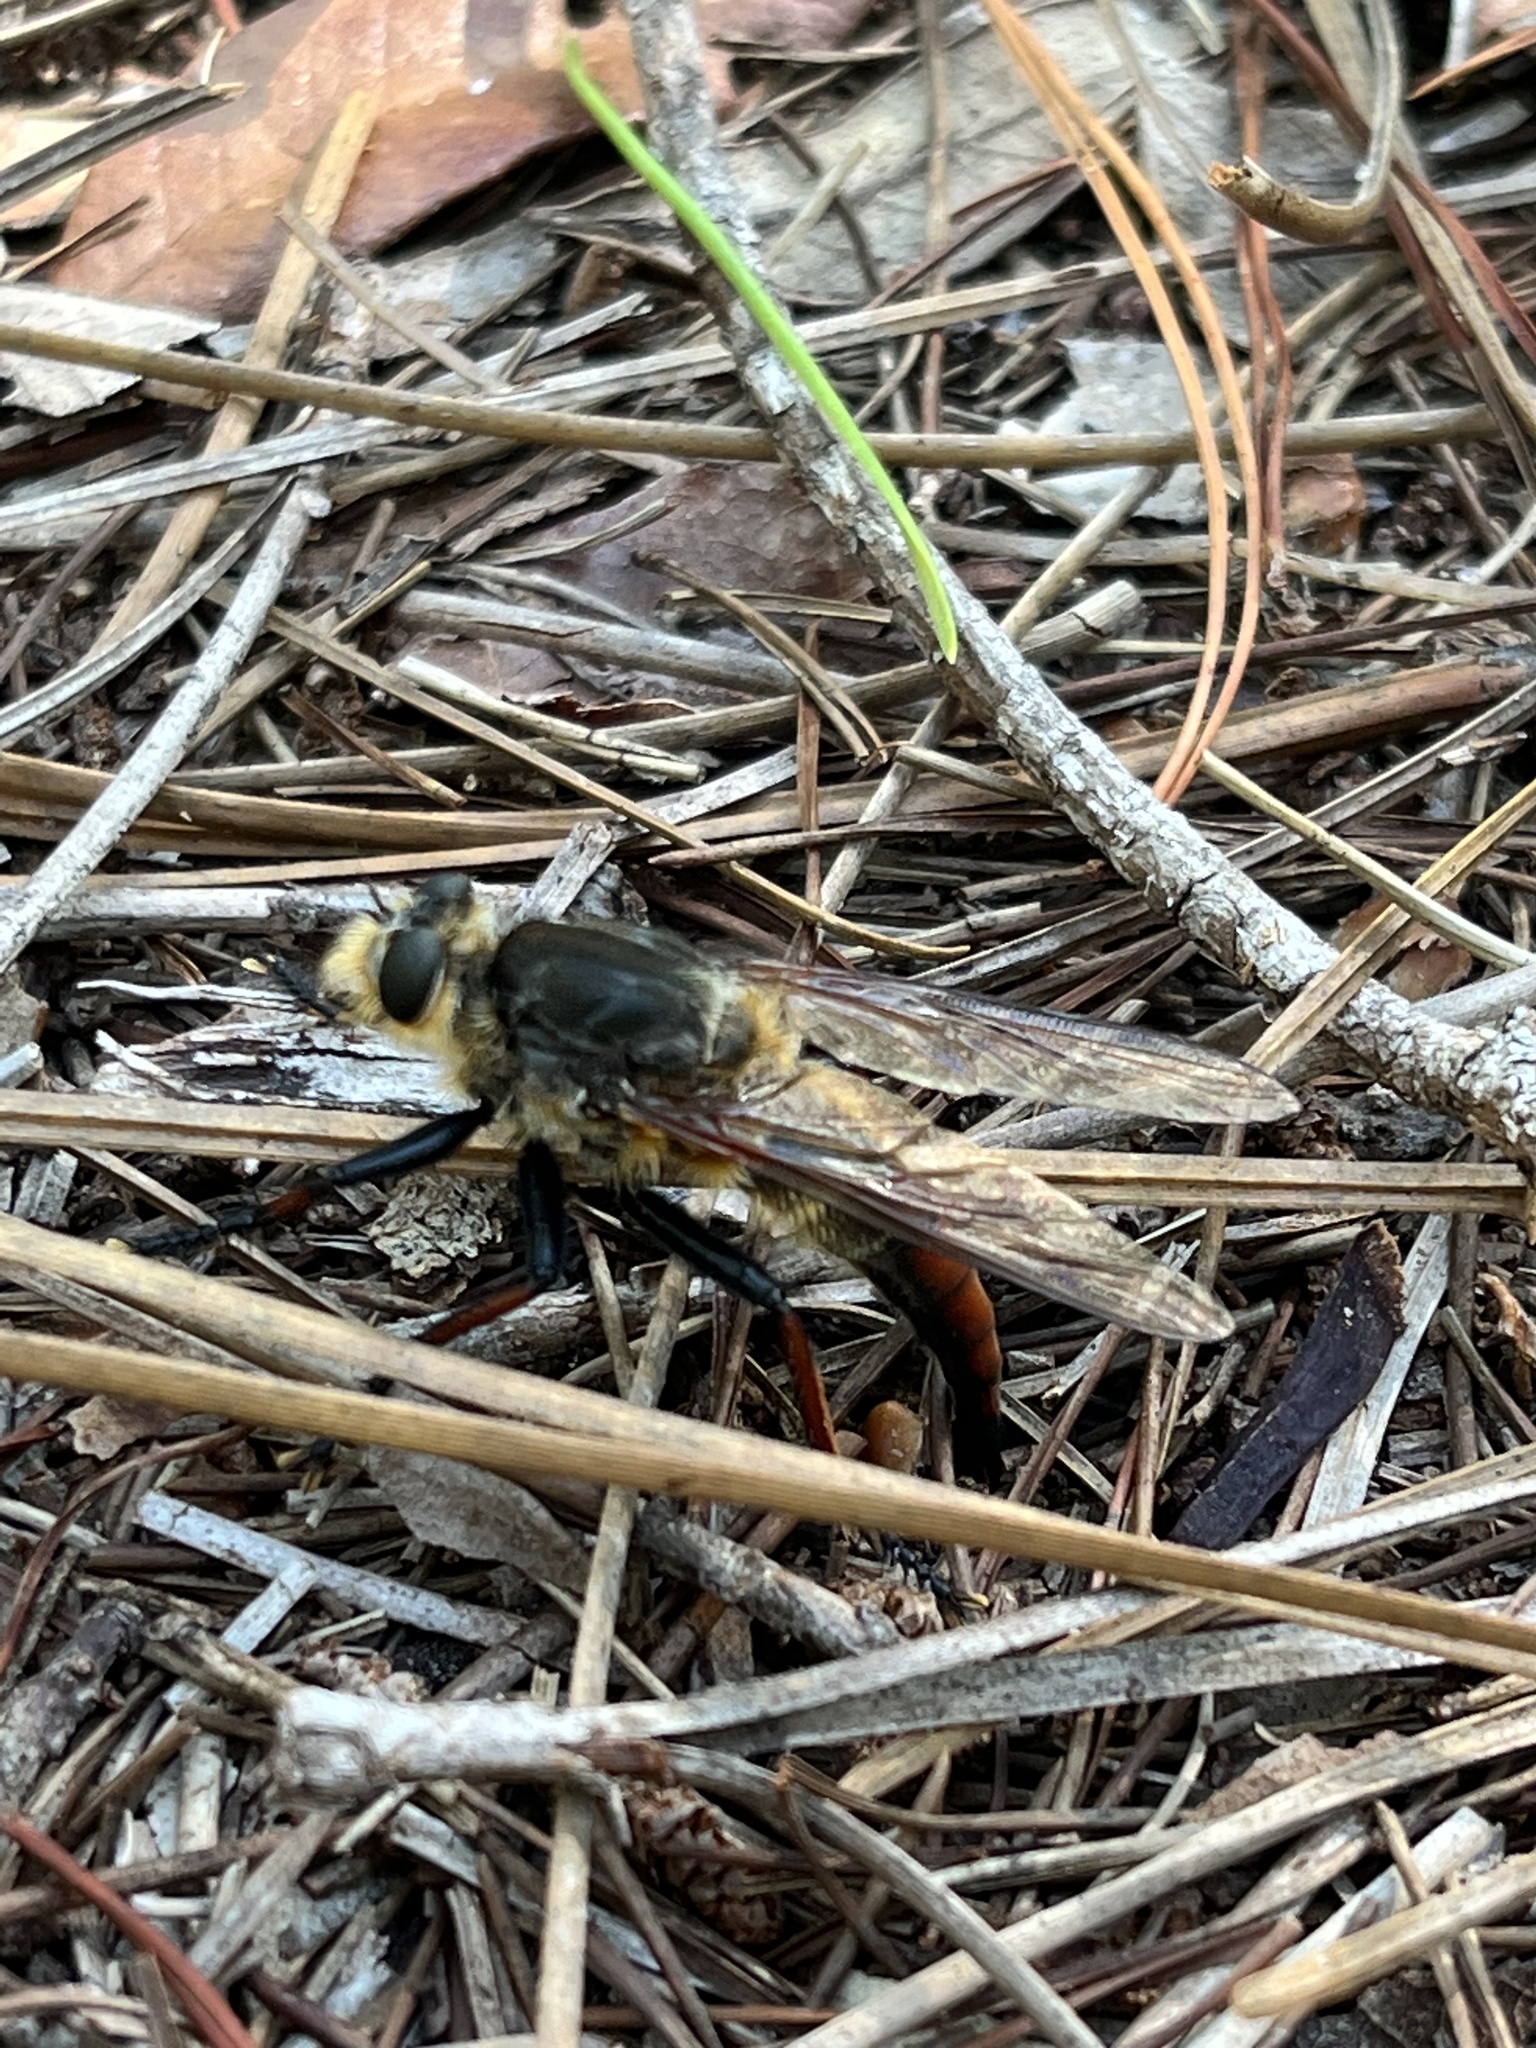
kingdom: Animalia
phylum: Arthropoda
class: Insecta
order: Diptera
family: Asilidae
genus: Proctacanthus
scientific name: Proctacanthus fulviventris
